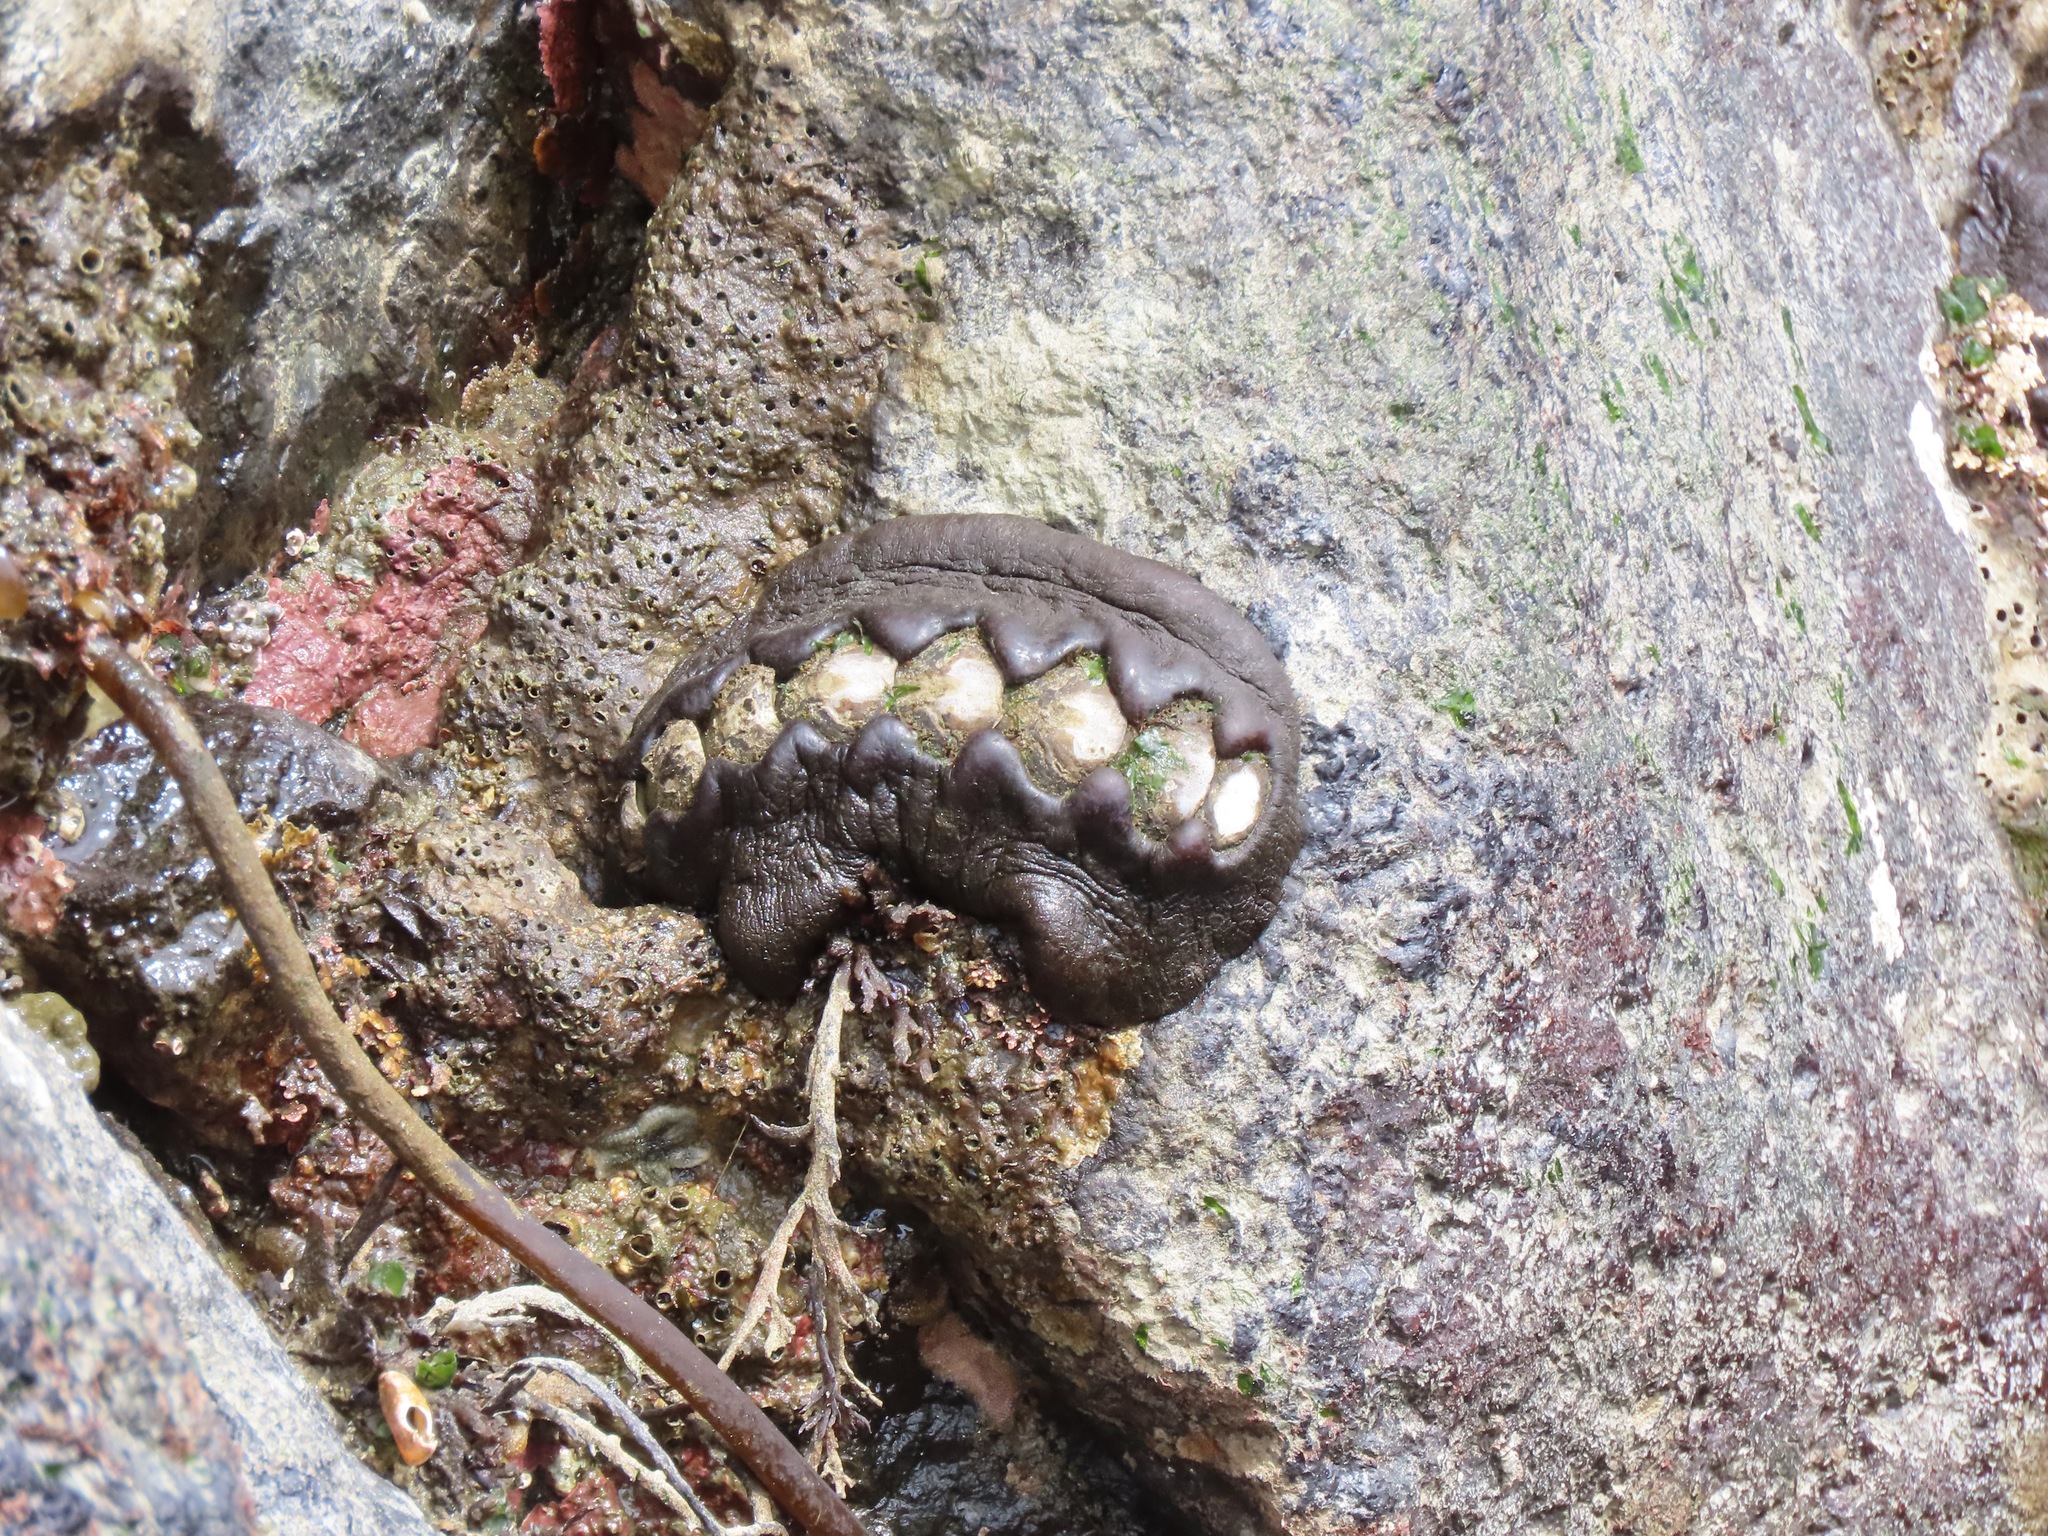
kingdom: Animalia
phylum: Mollusca
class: Polyplacophora
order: Chitonida
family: Mopaliidae
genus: Katharina
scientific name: Katharina tunicata
